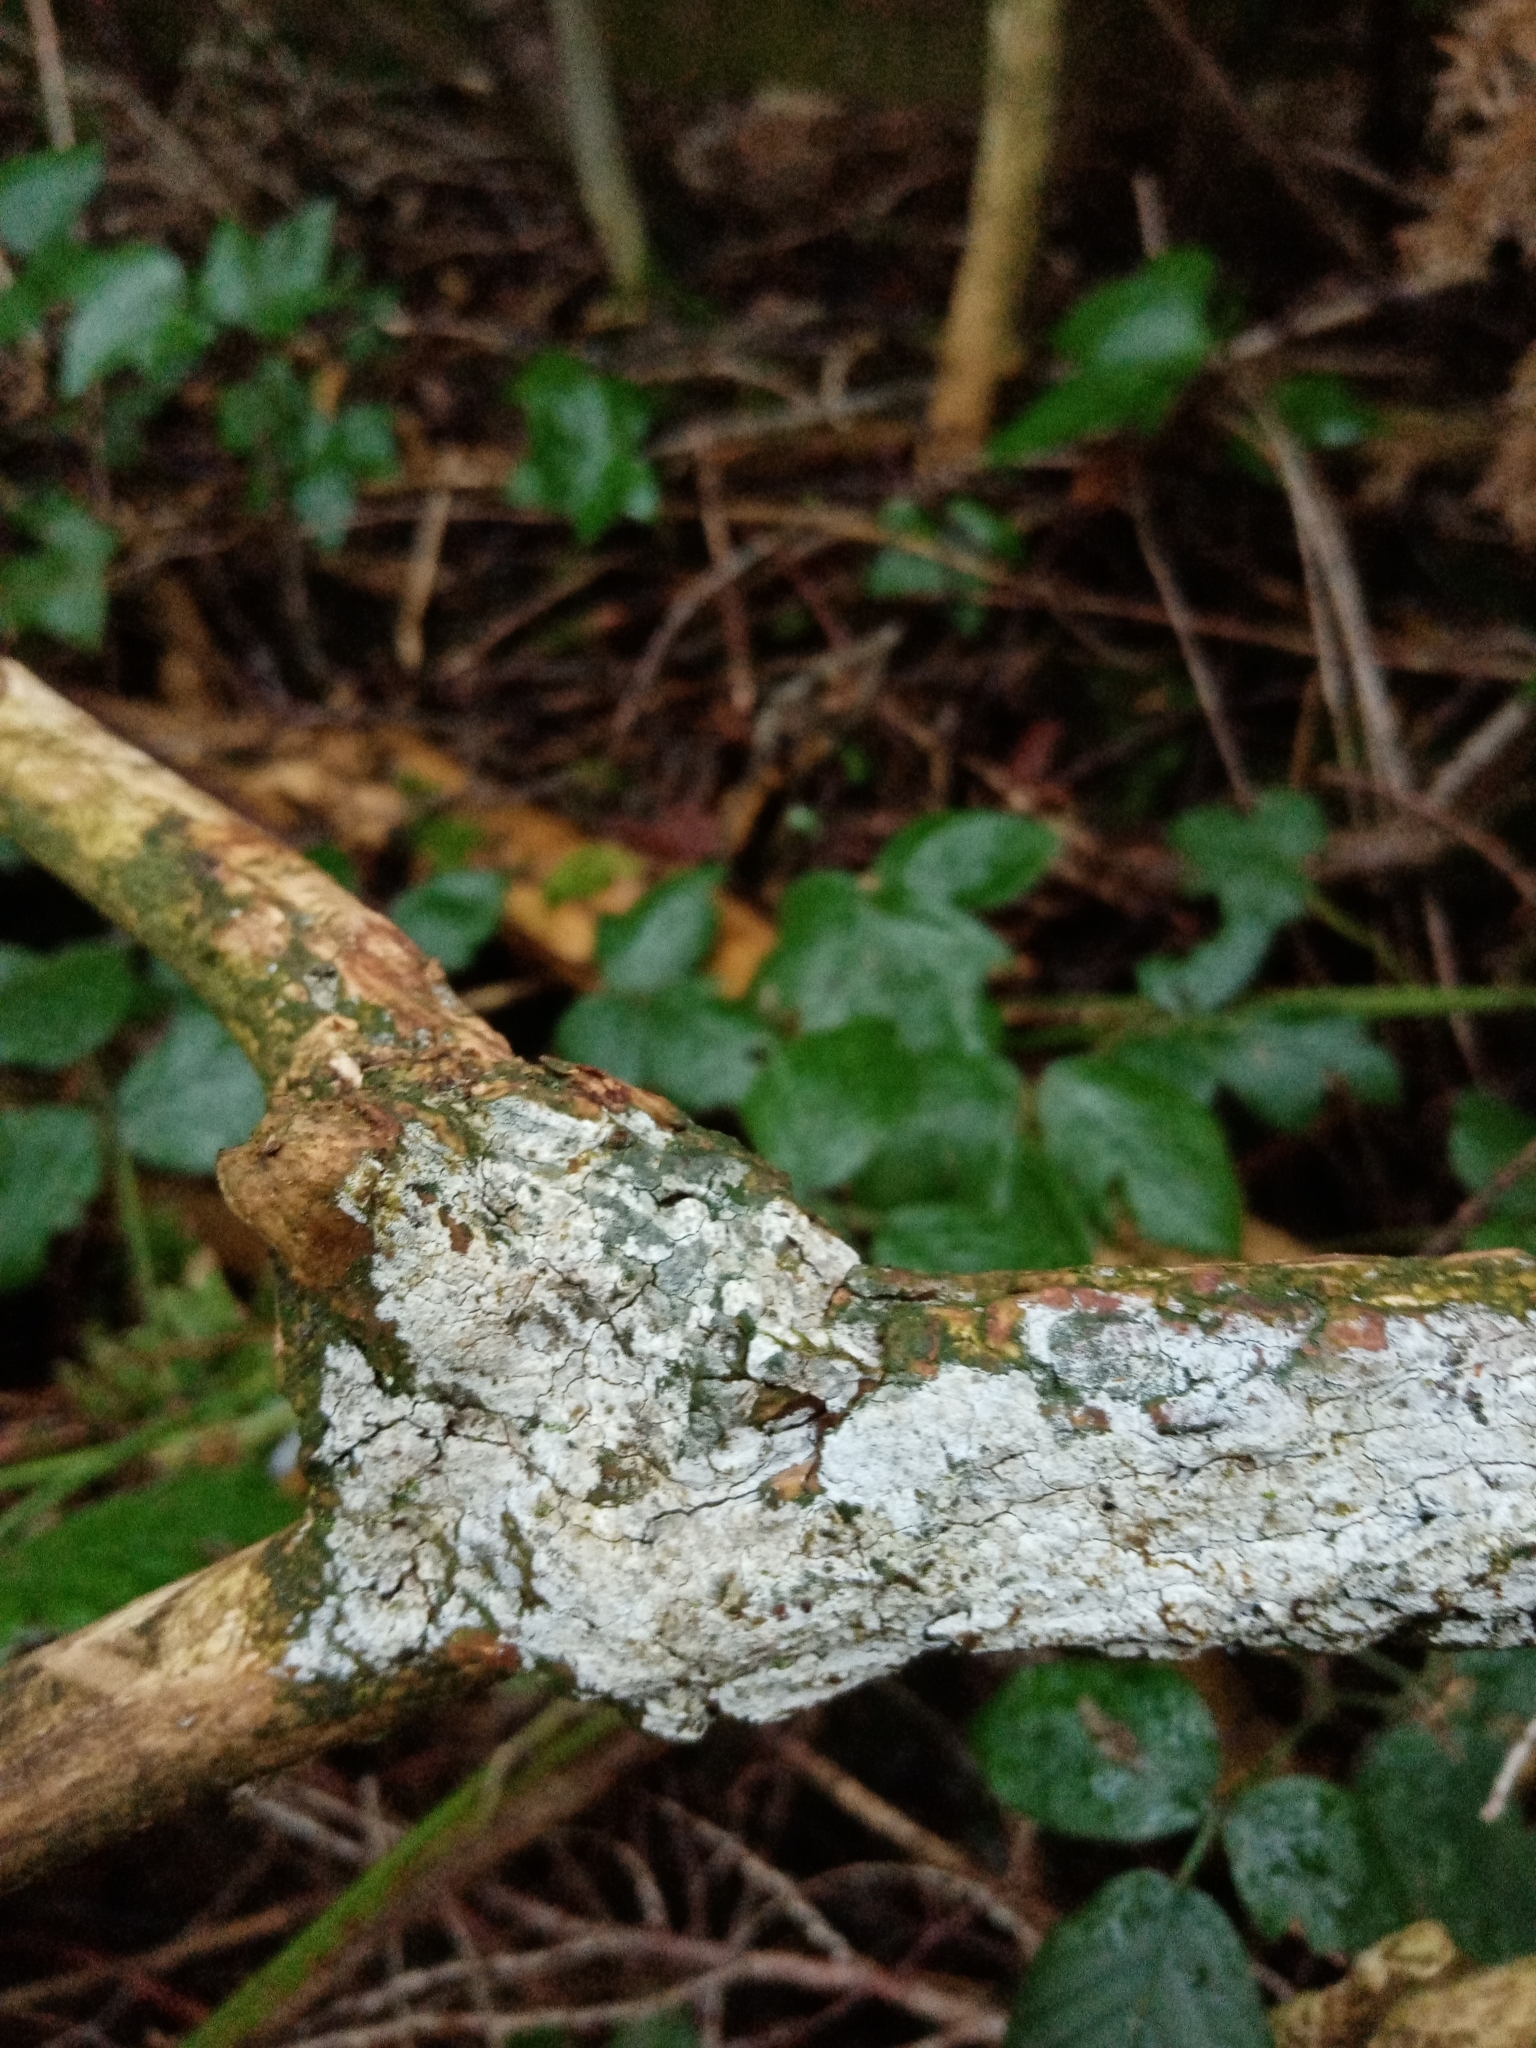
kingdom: Fungi
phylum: Basidiomycota
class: Agaricomycetes
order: Corticiales
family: Corticiaceae
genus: Lyomyces
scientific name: Lyomyces sambuci
